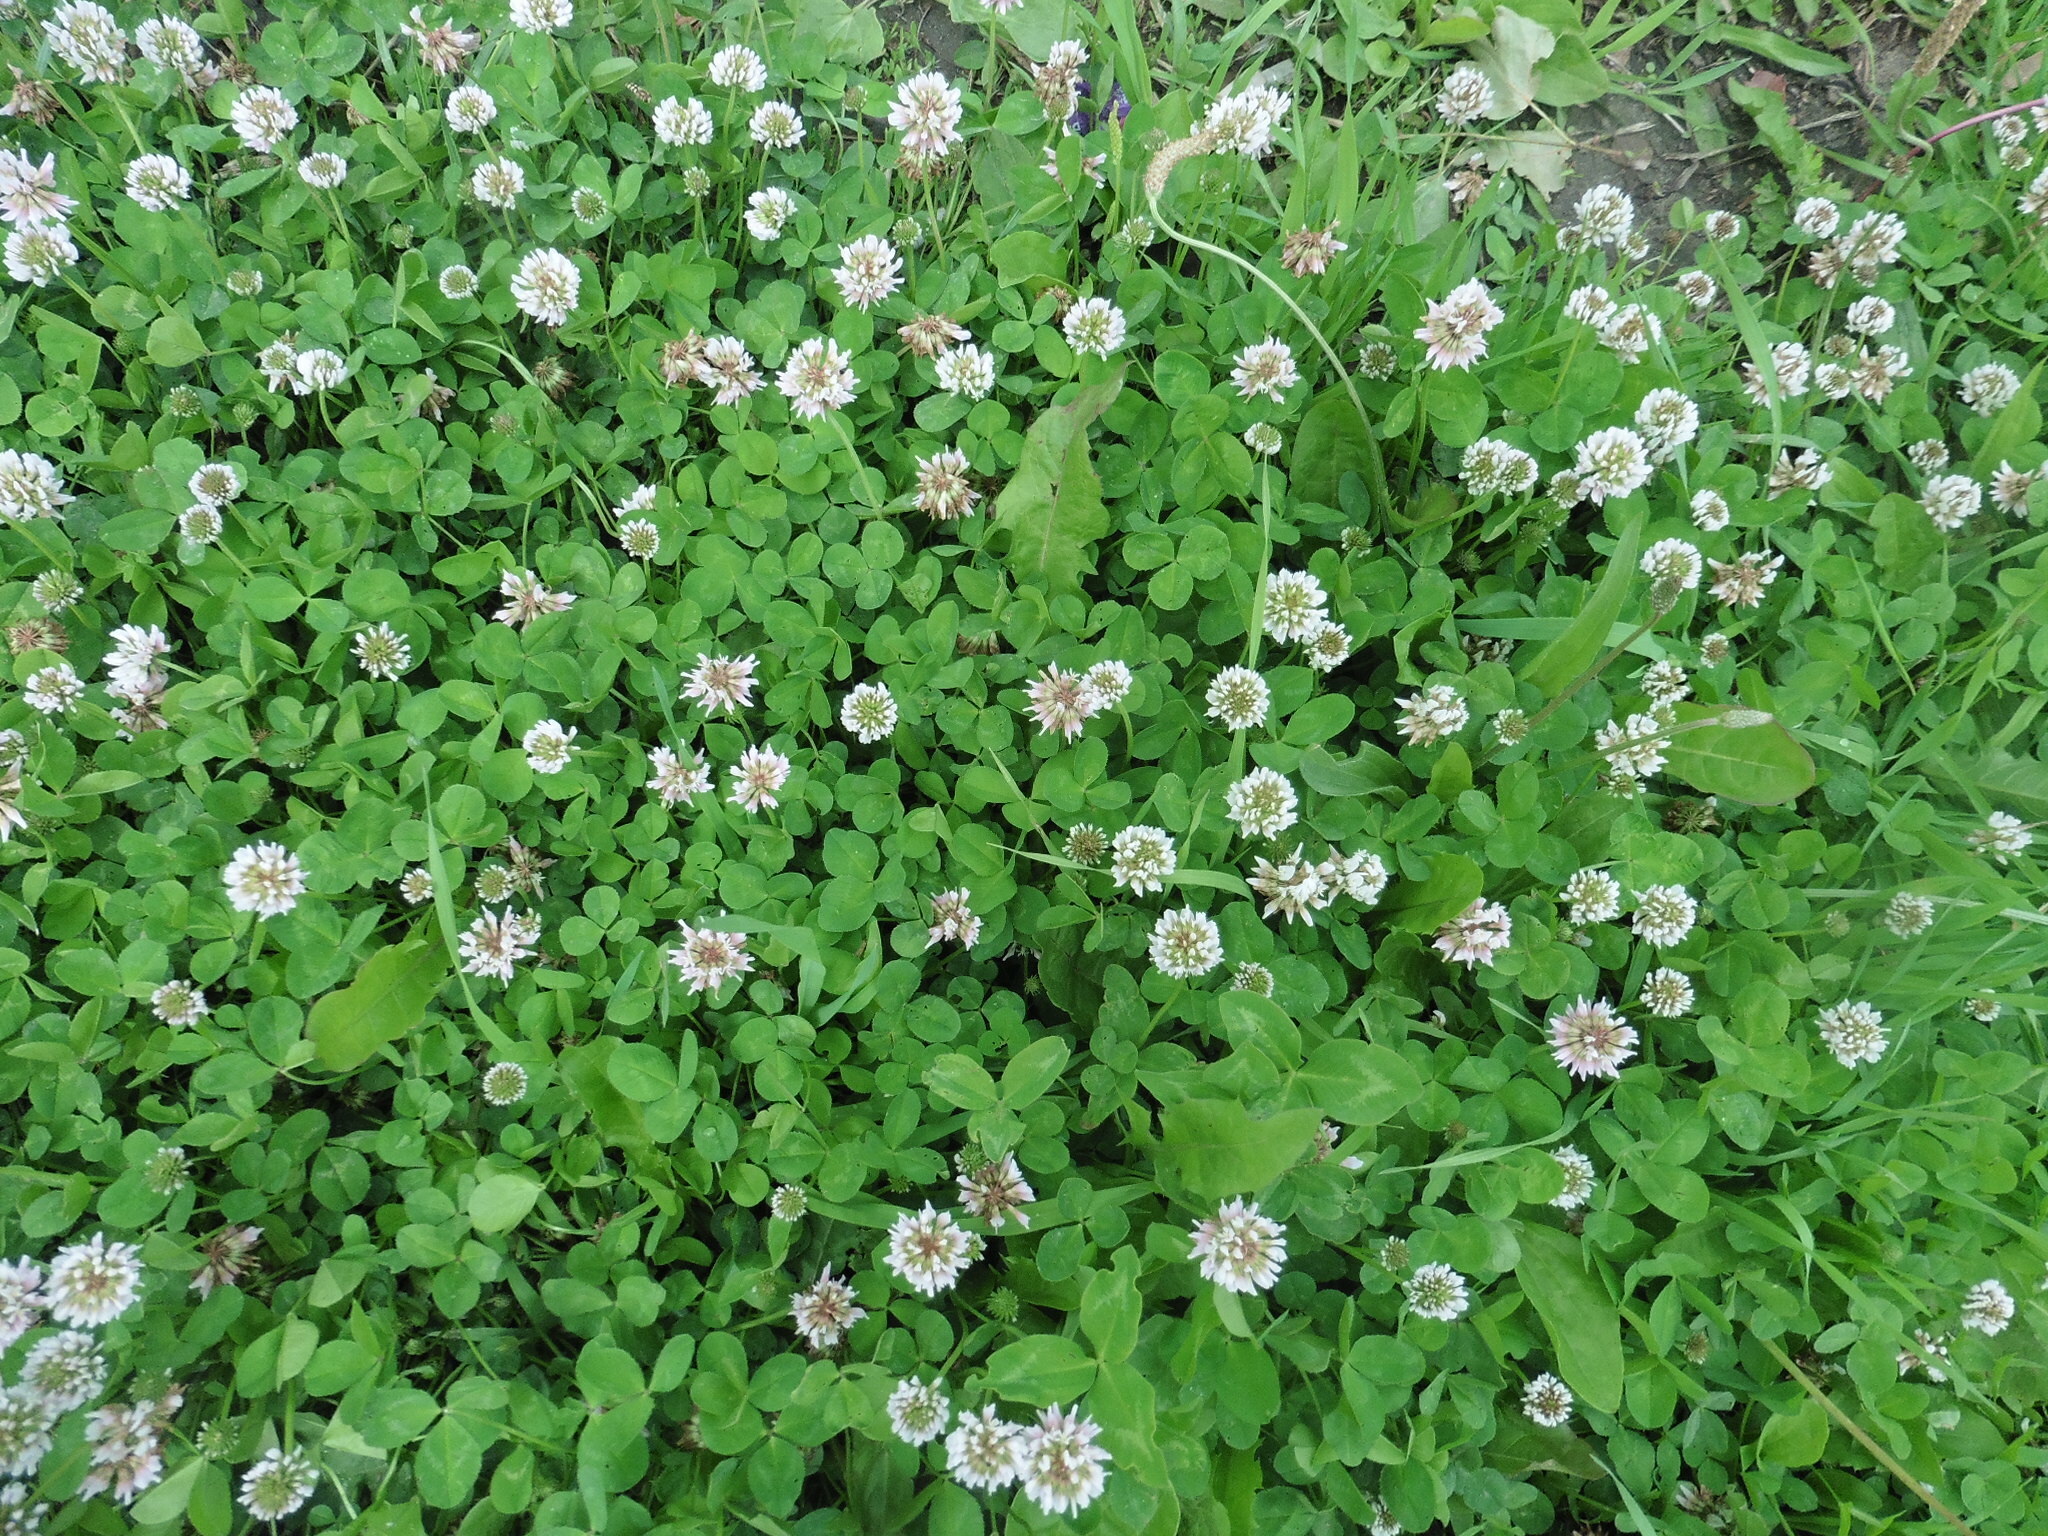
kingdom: Plantae
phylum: Tracheophyta
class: Magnoliopsida
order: Fabales
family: Fabaceae
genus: Trifolium
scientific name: Trifolium repens
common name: White clover
